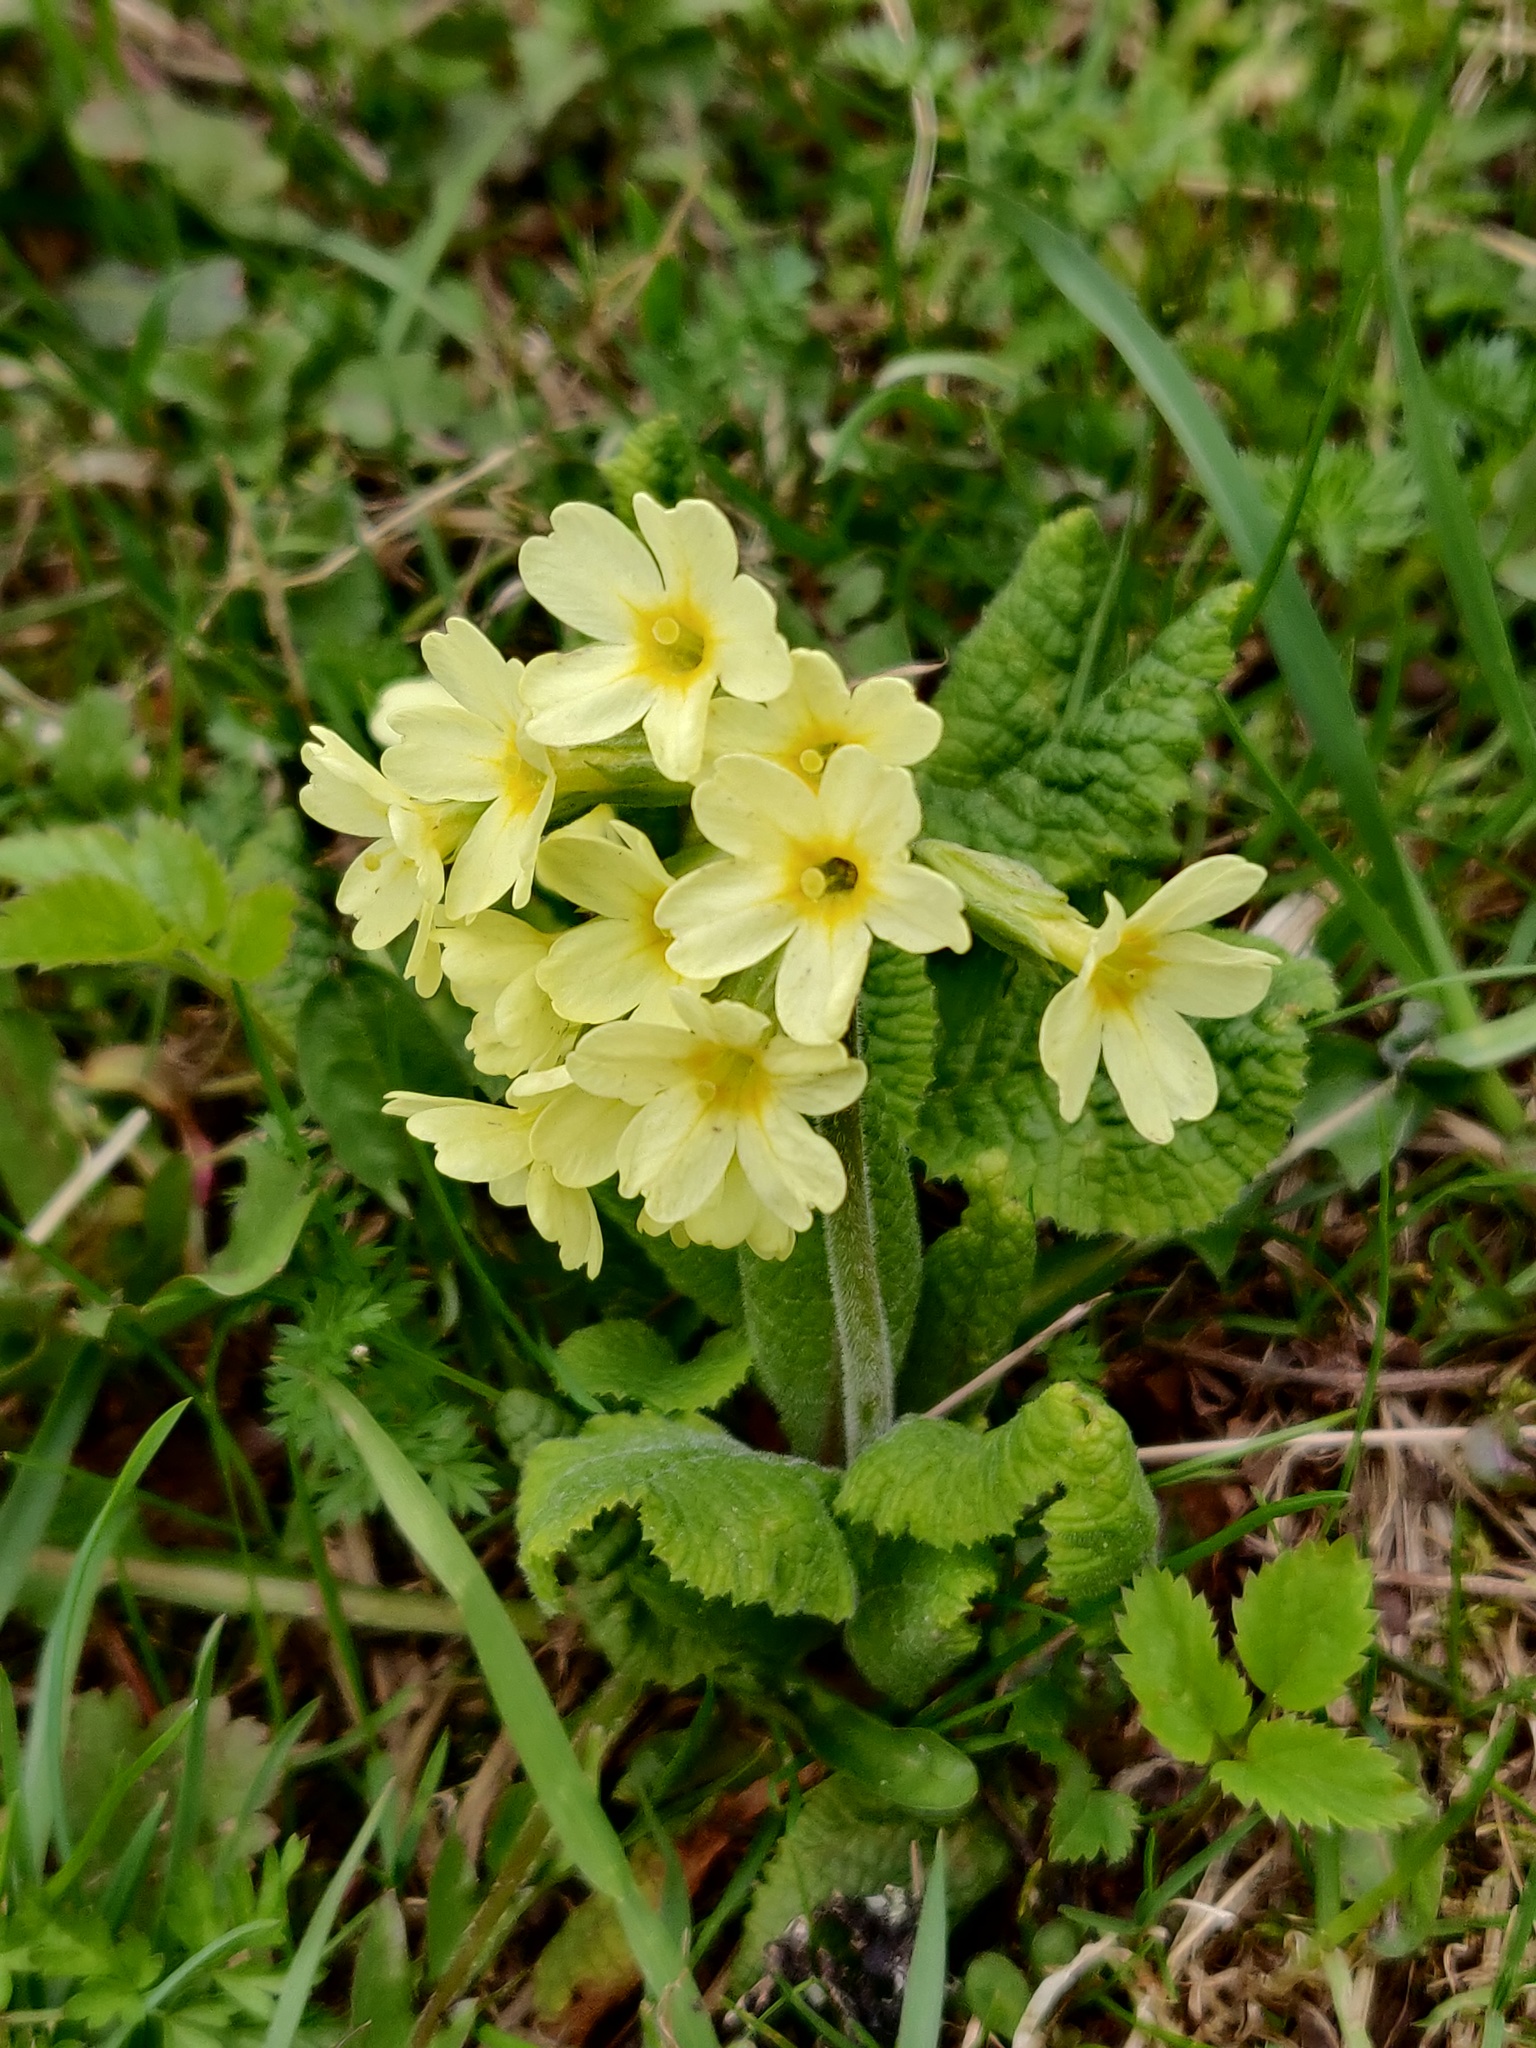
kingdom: Plantae
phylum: Tracheophyta
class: Magnoliopsida
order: Ericales
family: Primulaceae
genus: Primula
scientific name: Primula elatior
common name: Oxlip
